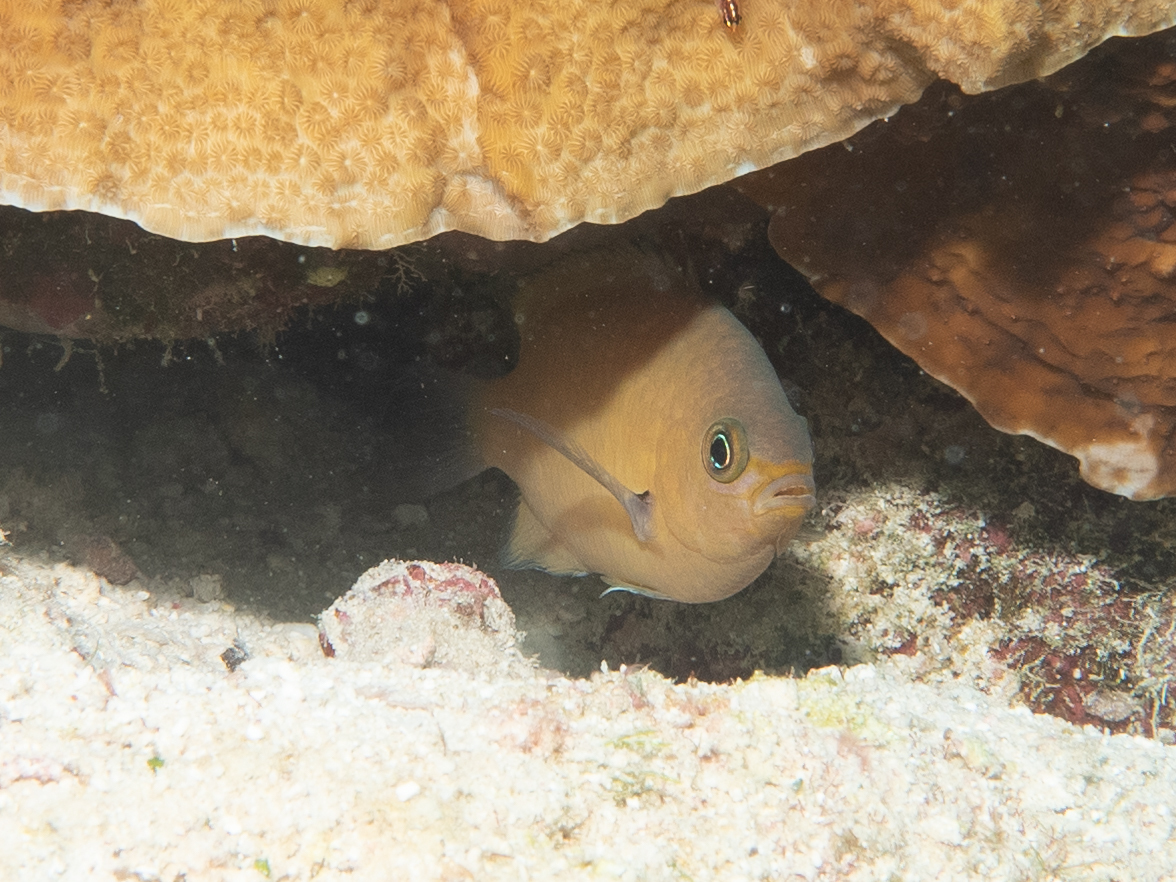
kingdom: Animalia
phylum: Chordata
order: Perciformes
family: Pomacentridae
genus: Chromis
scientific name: Chromis agilis
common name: Bronze reef chromis
